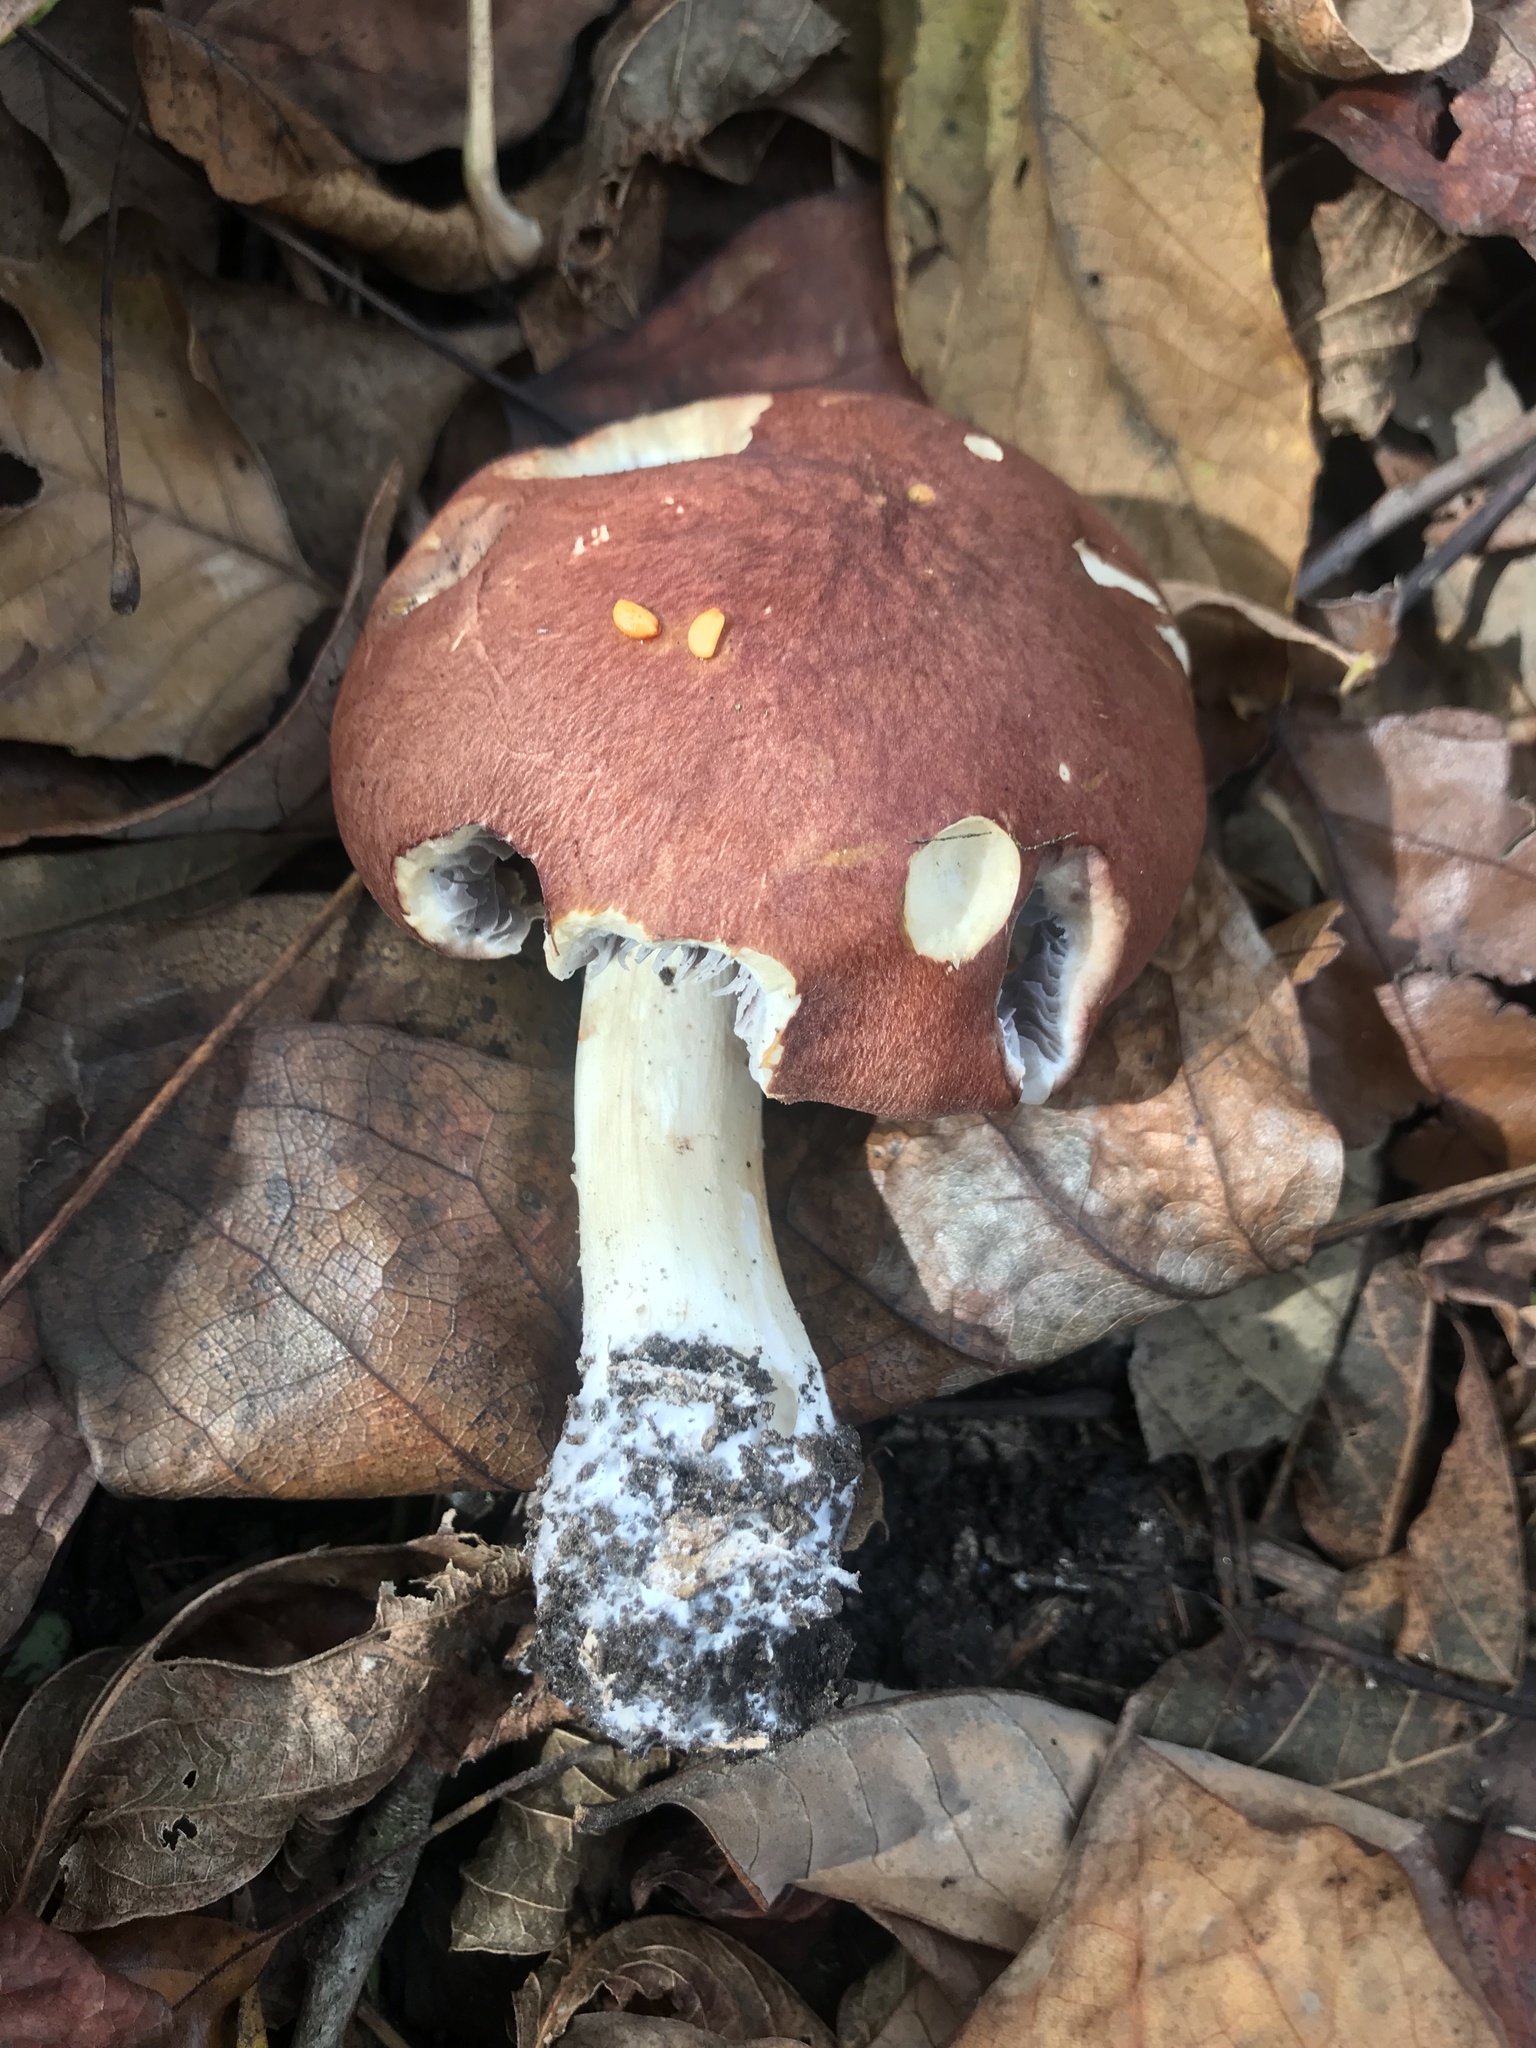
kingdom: Fungi
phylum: Basidiomycota
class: Agaricomycetes
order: Agaricales
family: Strophariaceae
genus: Stropharia
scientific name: Stropharia rugosoannulata
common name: Wine roundhead
